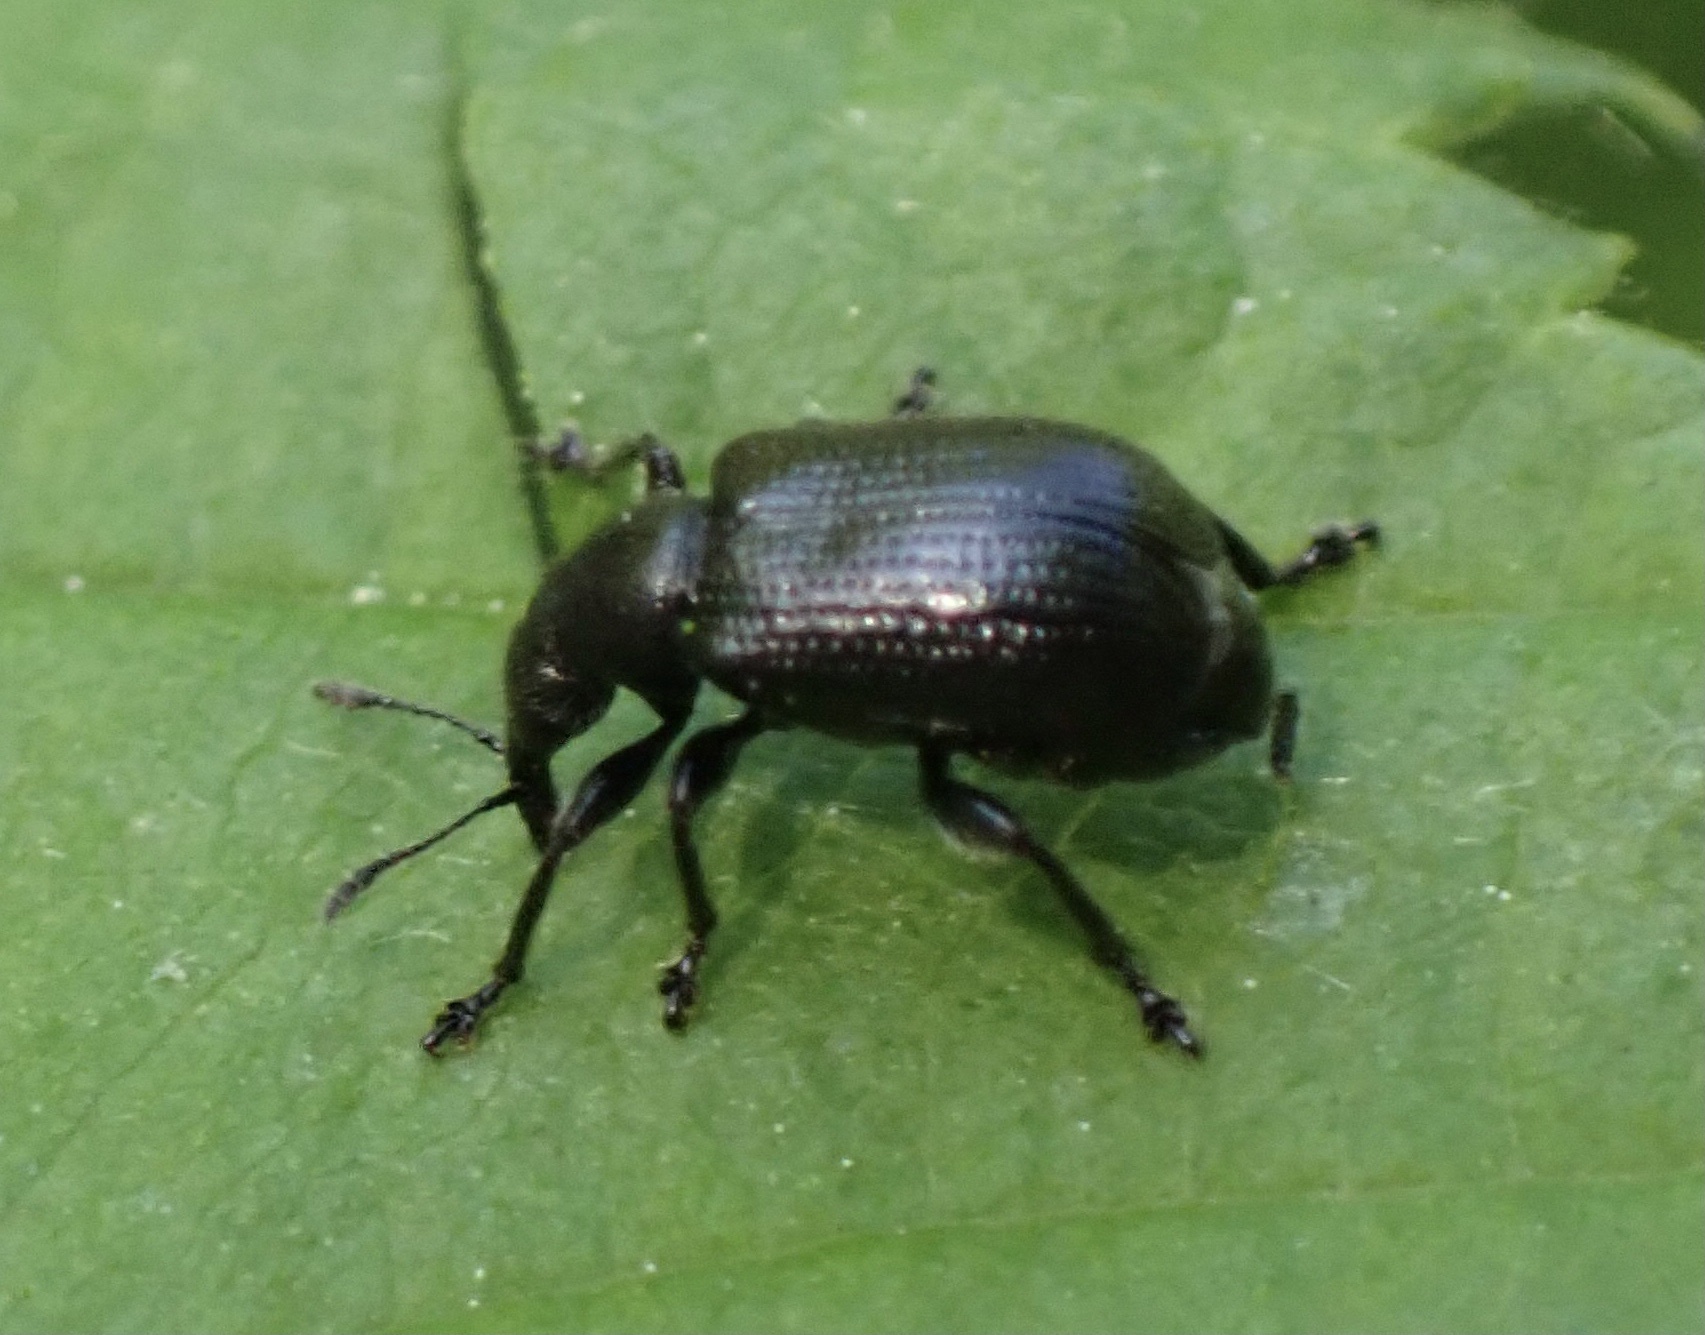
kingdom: Animalia
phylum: Arthropoda
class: Insecta
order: Coleoptera
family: Attelabidae
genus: Deporaus
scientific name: Deporaus betulae
